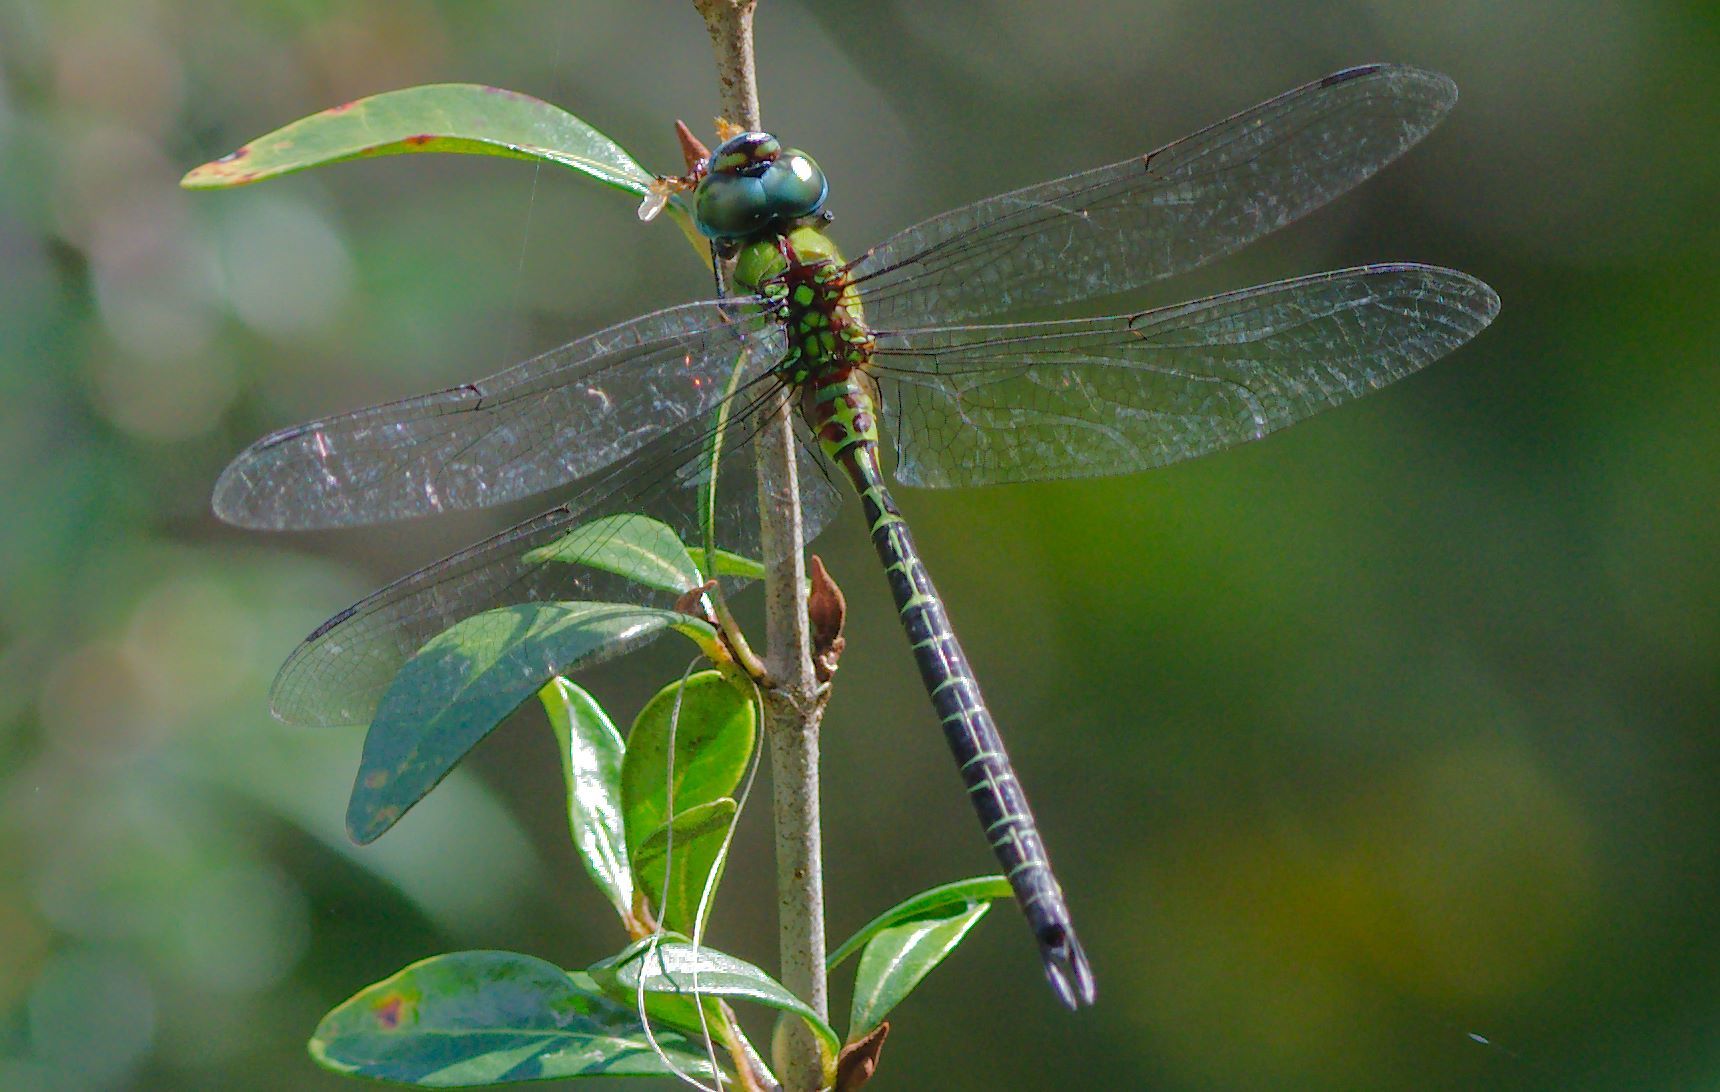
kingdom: Animalia
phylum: Arthropoda
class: Insecta
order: Odonata
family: Aeshnidae
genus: Coryphaeschna
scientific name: Coryphaeschna adnexa
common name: Blue-faced darner
